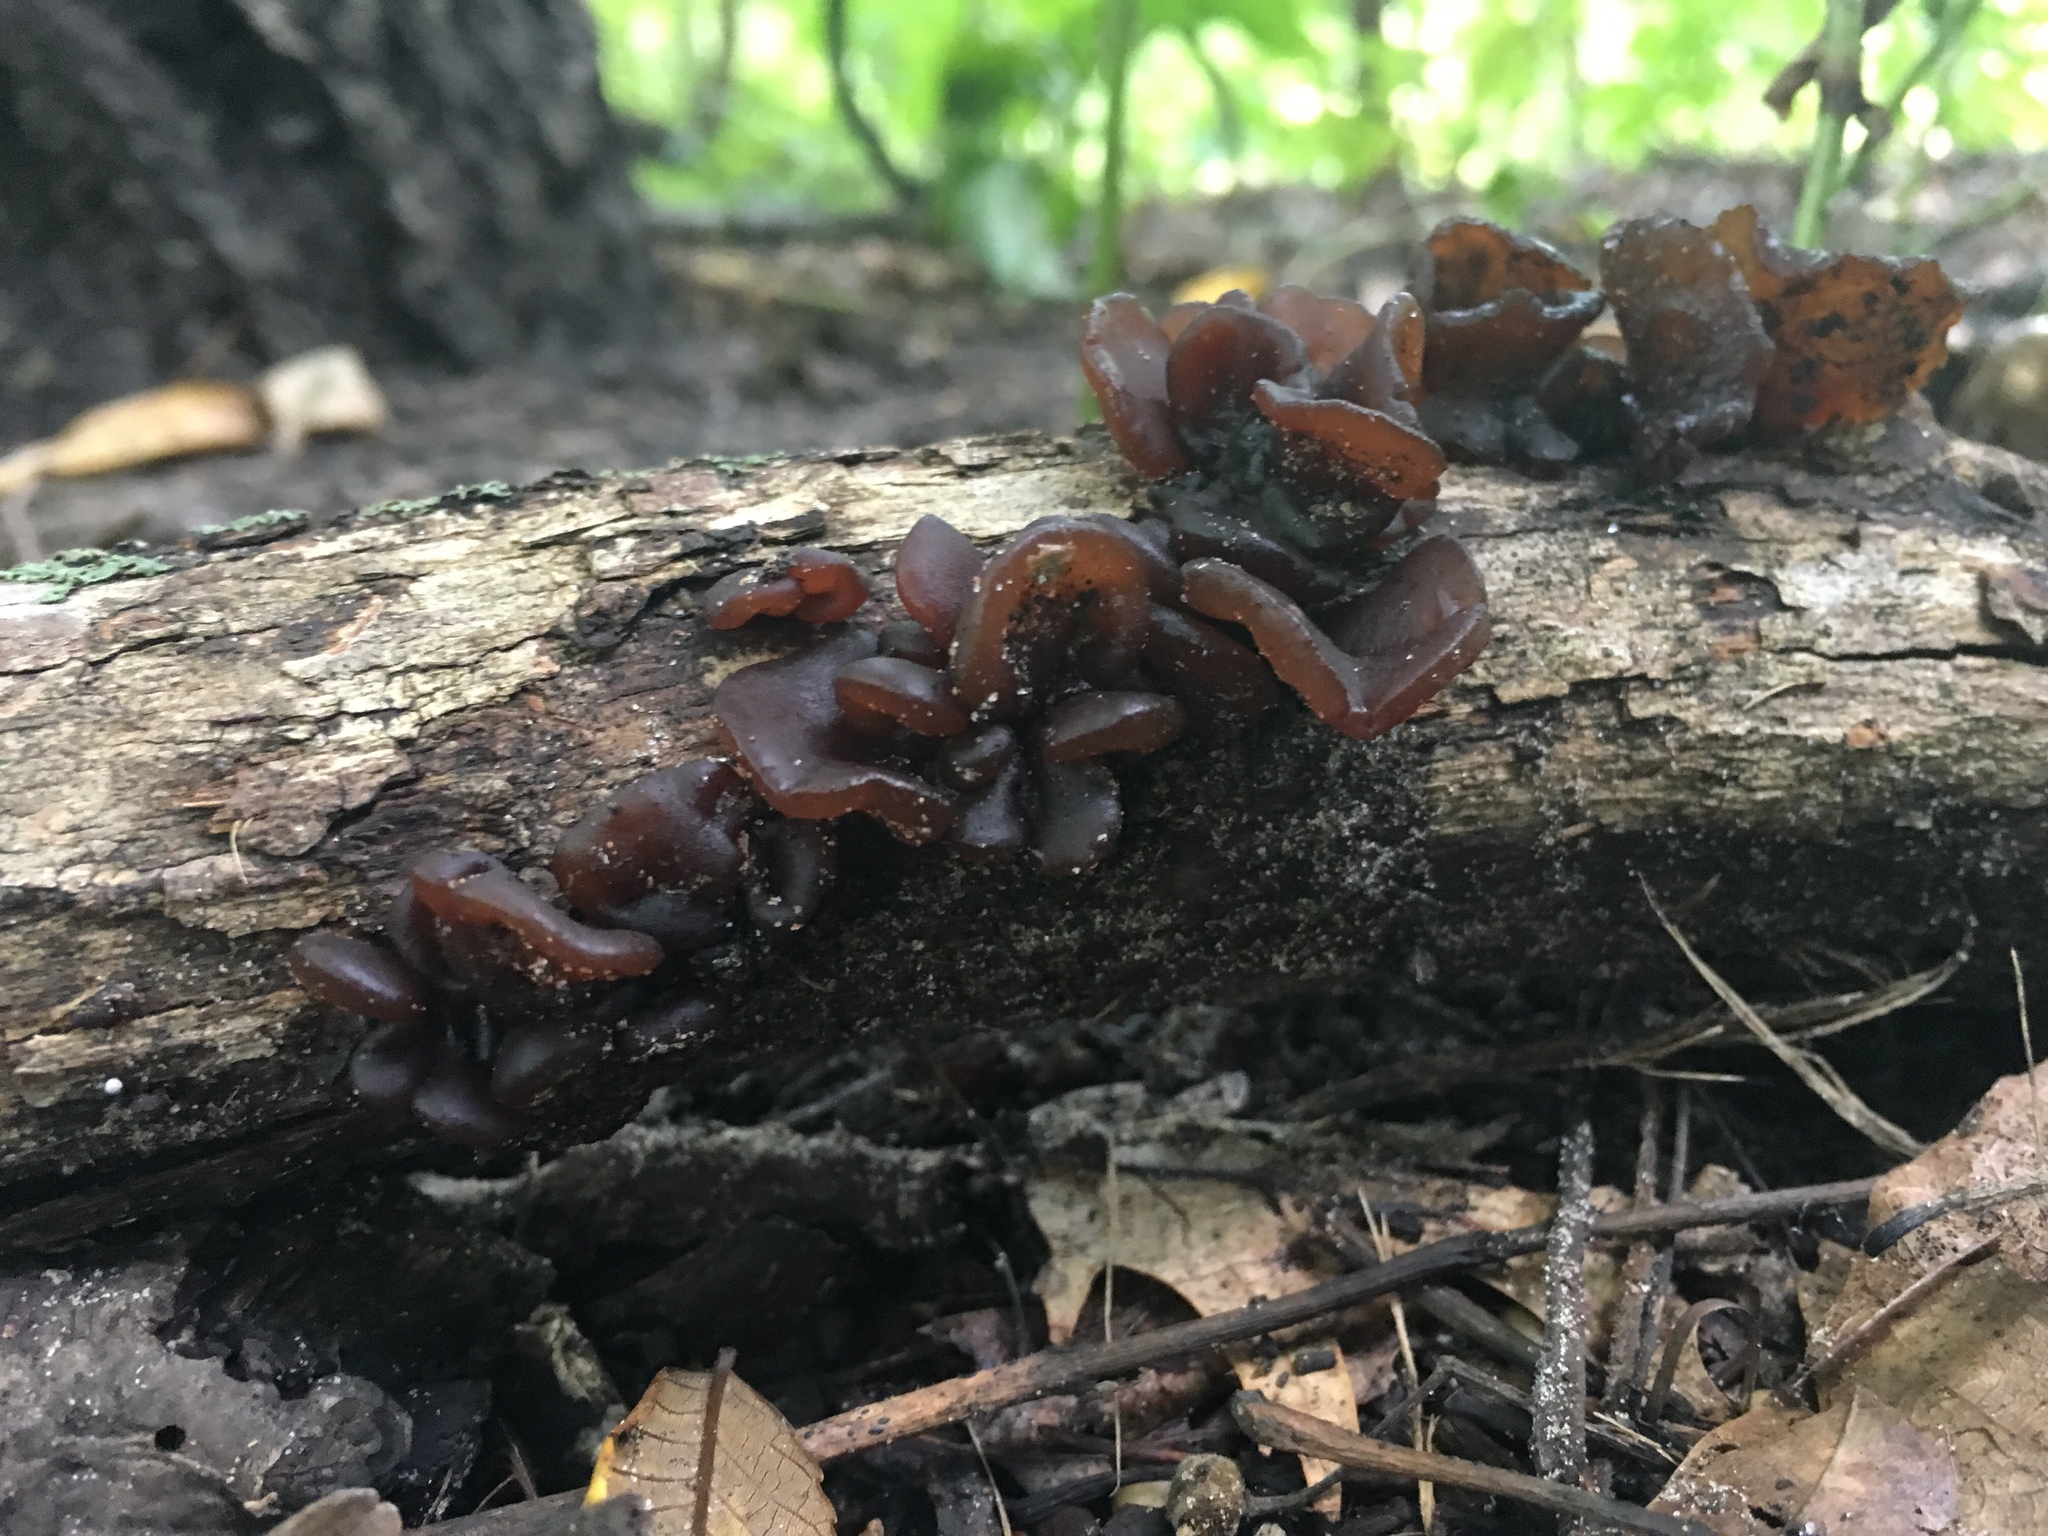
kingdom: Fungi
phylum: Basidiomycota
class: Agaricomycetes
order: Auriculariales
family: Auriculariaceae
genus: Exidia
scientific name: Exidia
